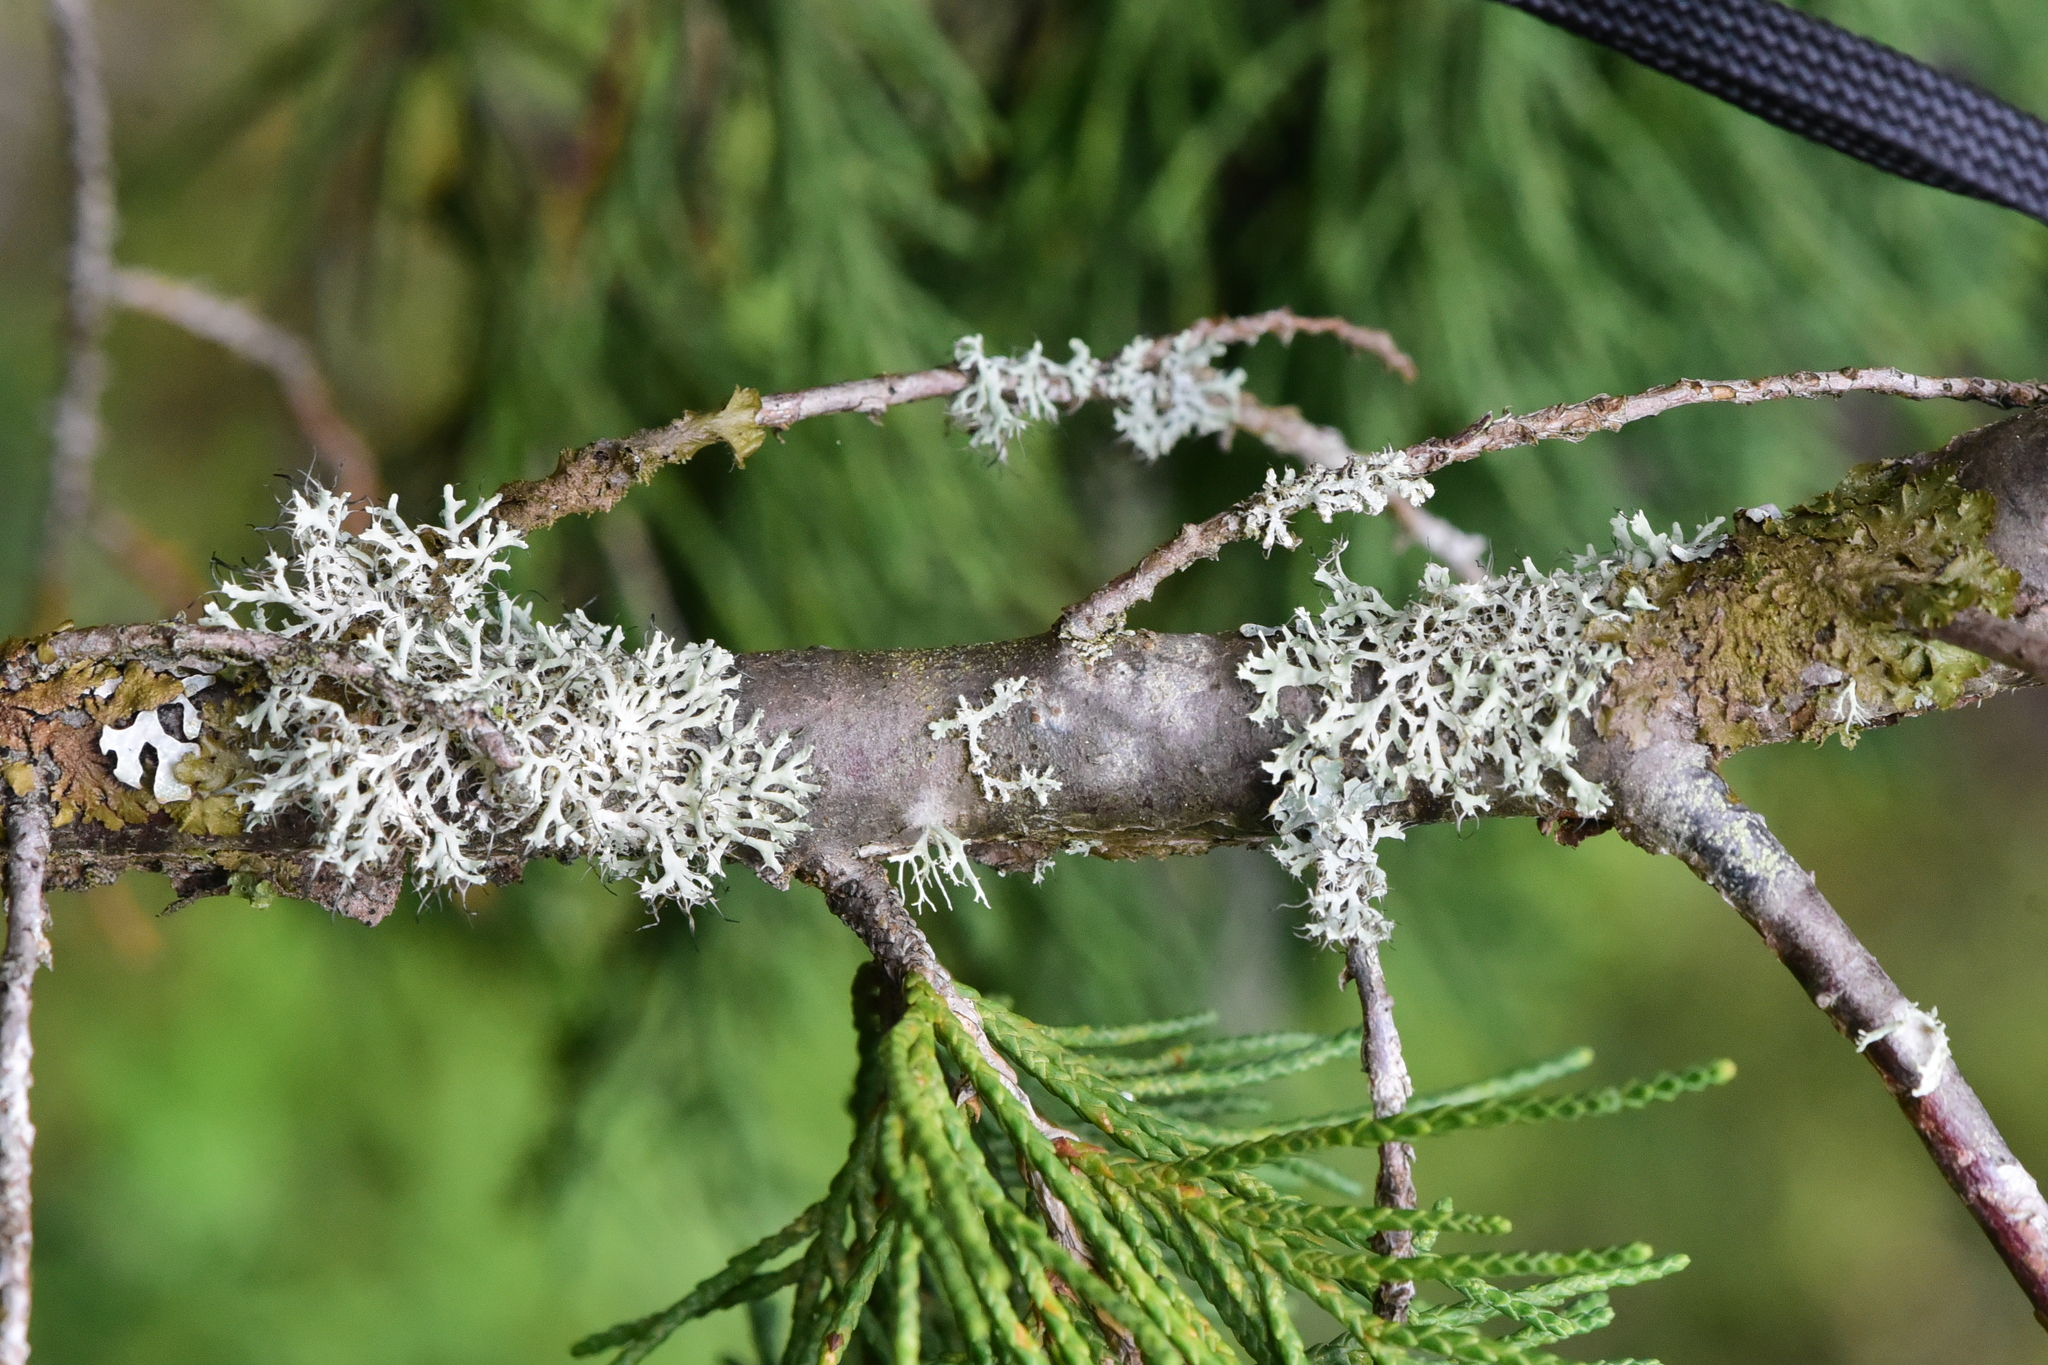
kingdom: Fungi
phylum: Ascomycota
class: Lecanoromycetes
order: Caliciales
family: Physciaceae
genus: Physcia
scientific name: Physcia tenella
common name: Fringed rosette lichen
